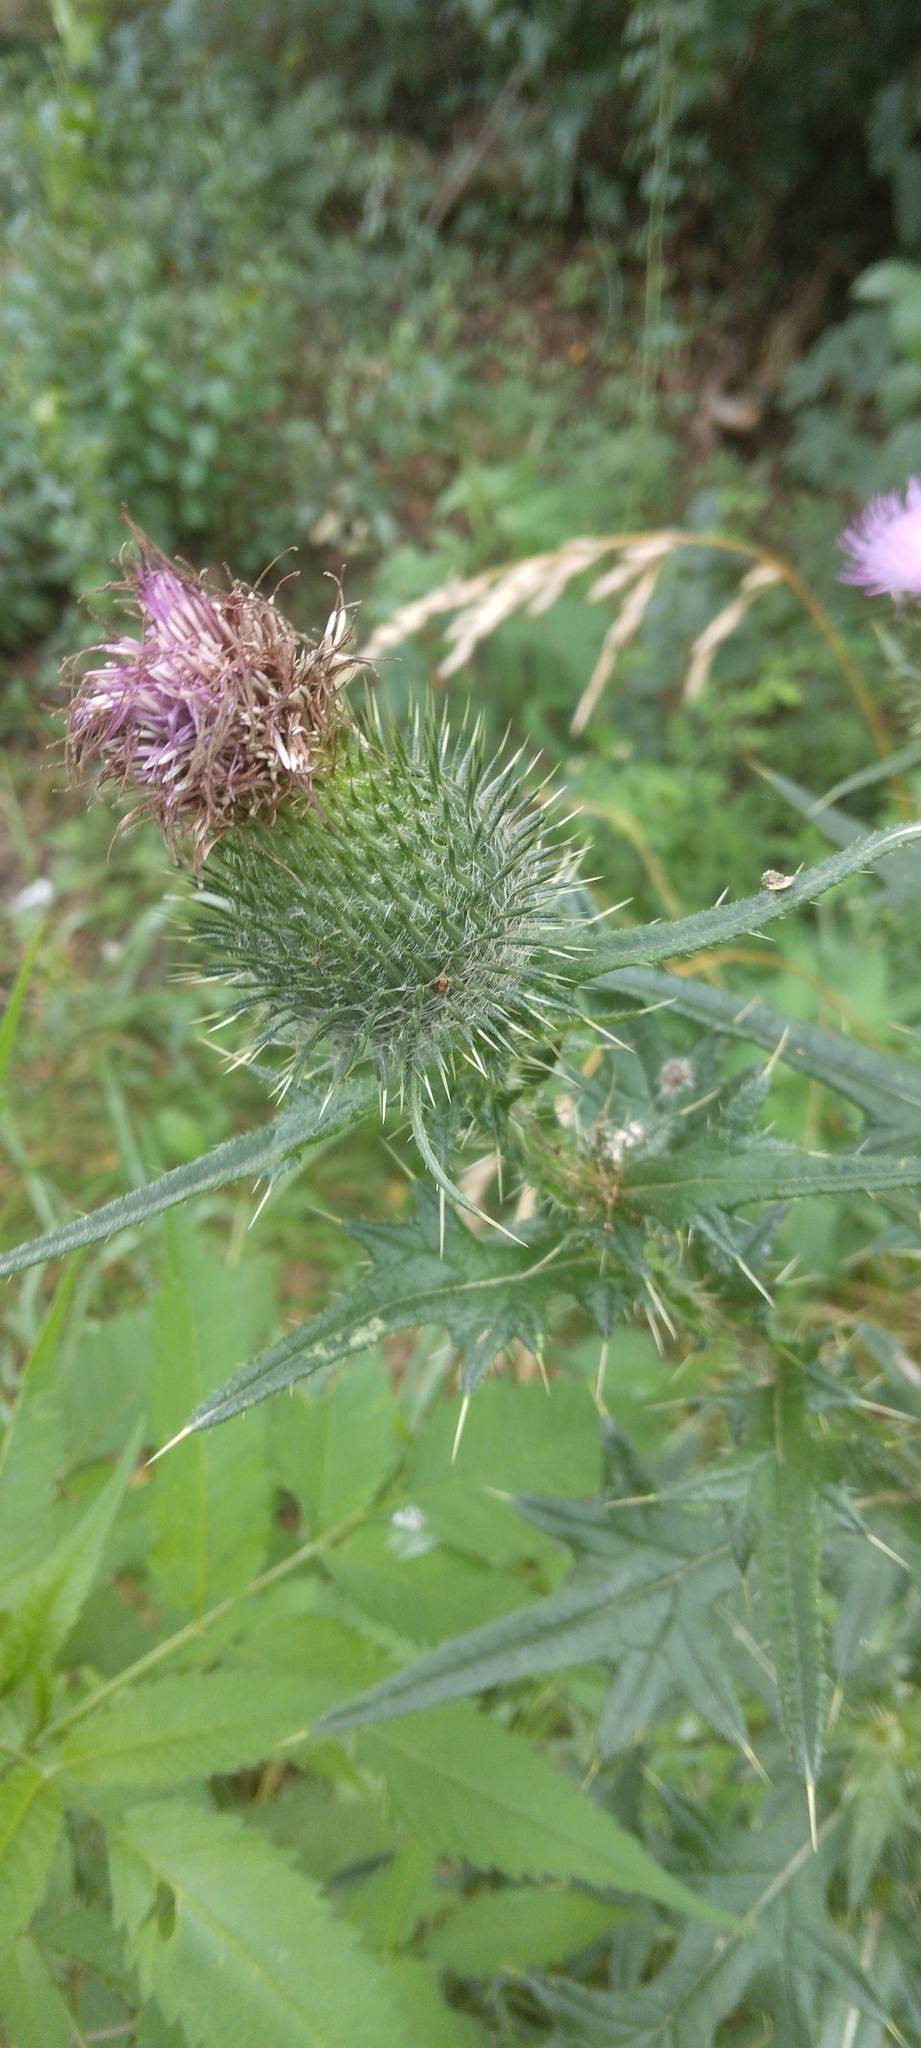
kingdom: Plantae
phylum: Tracheophyta
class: Magnoliopsida
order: Asterales
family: Asteraceae
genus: Cirsium
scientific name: Cirsium vulgare
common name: Bull thistle
